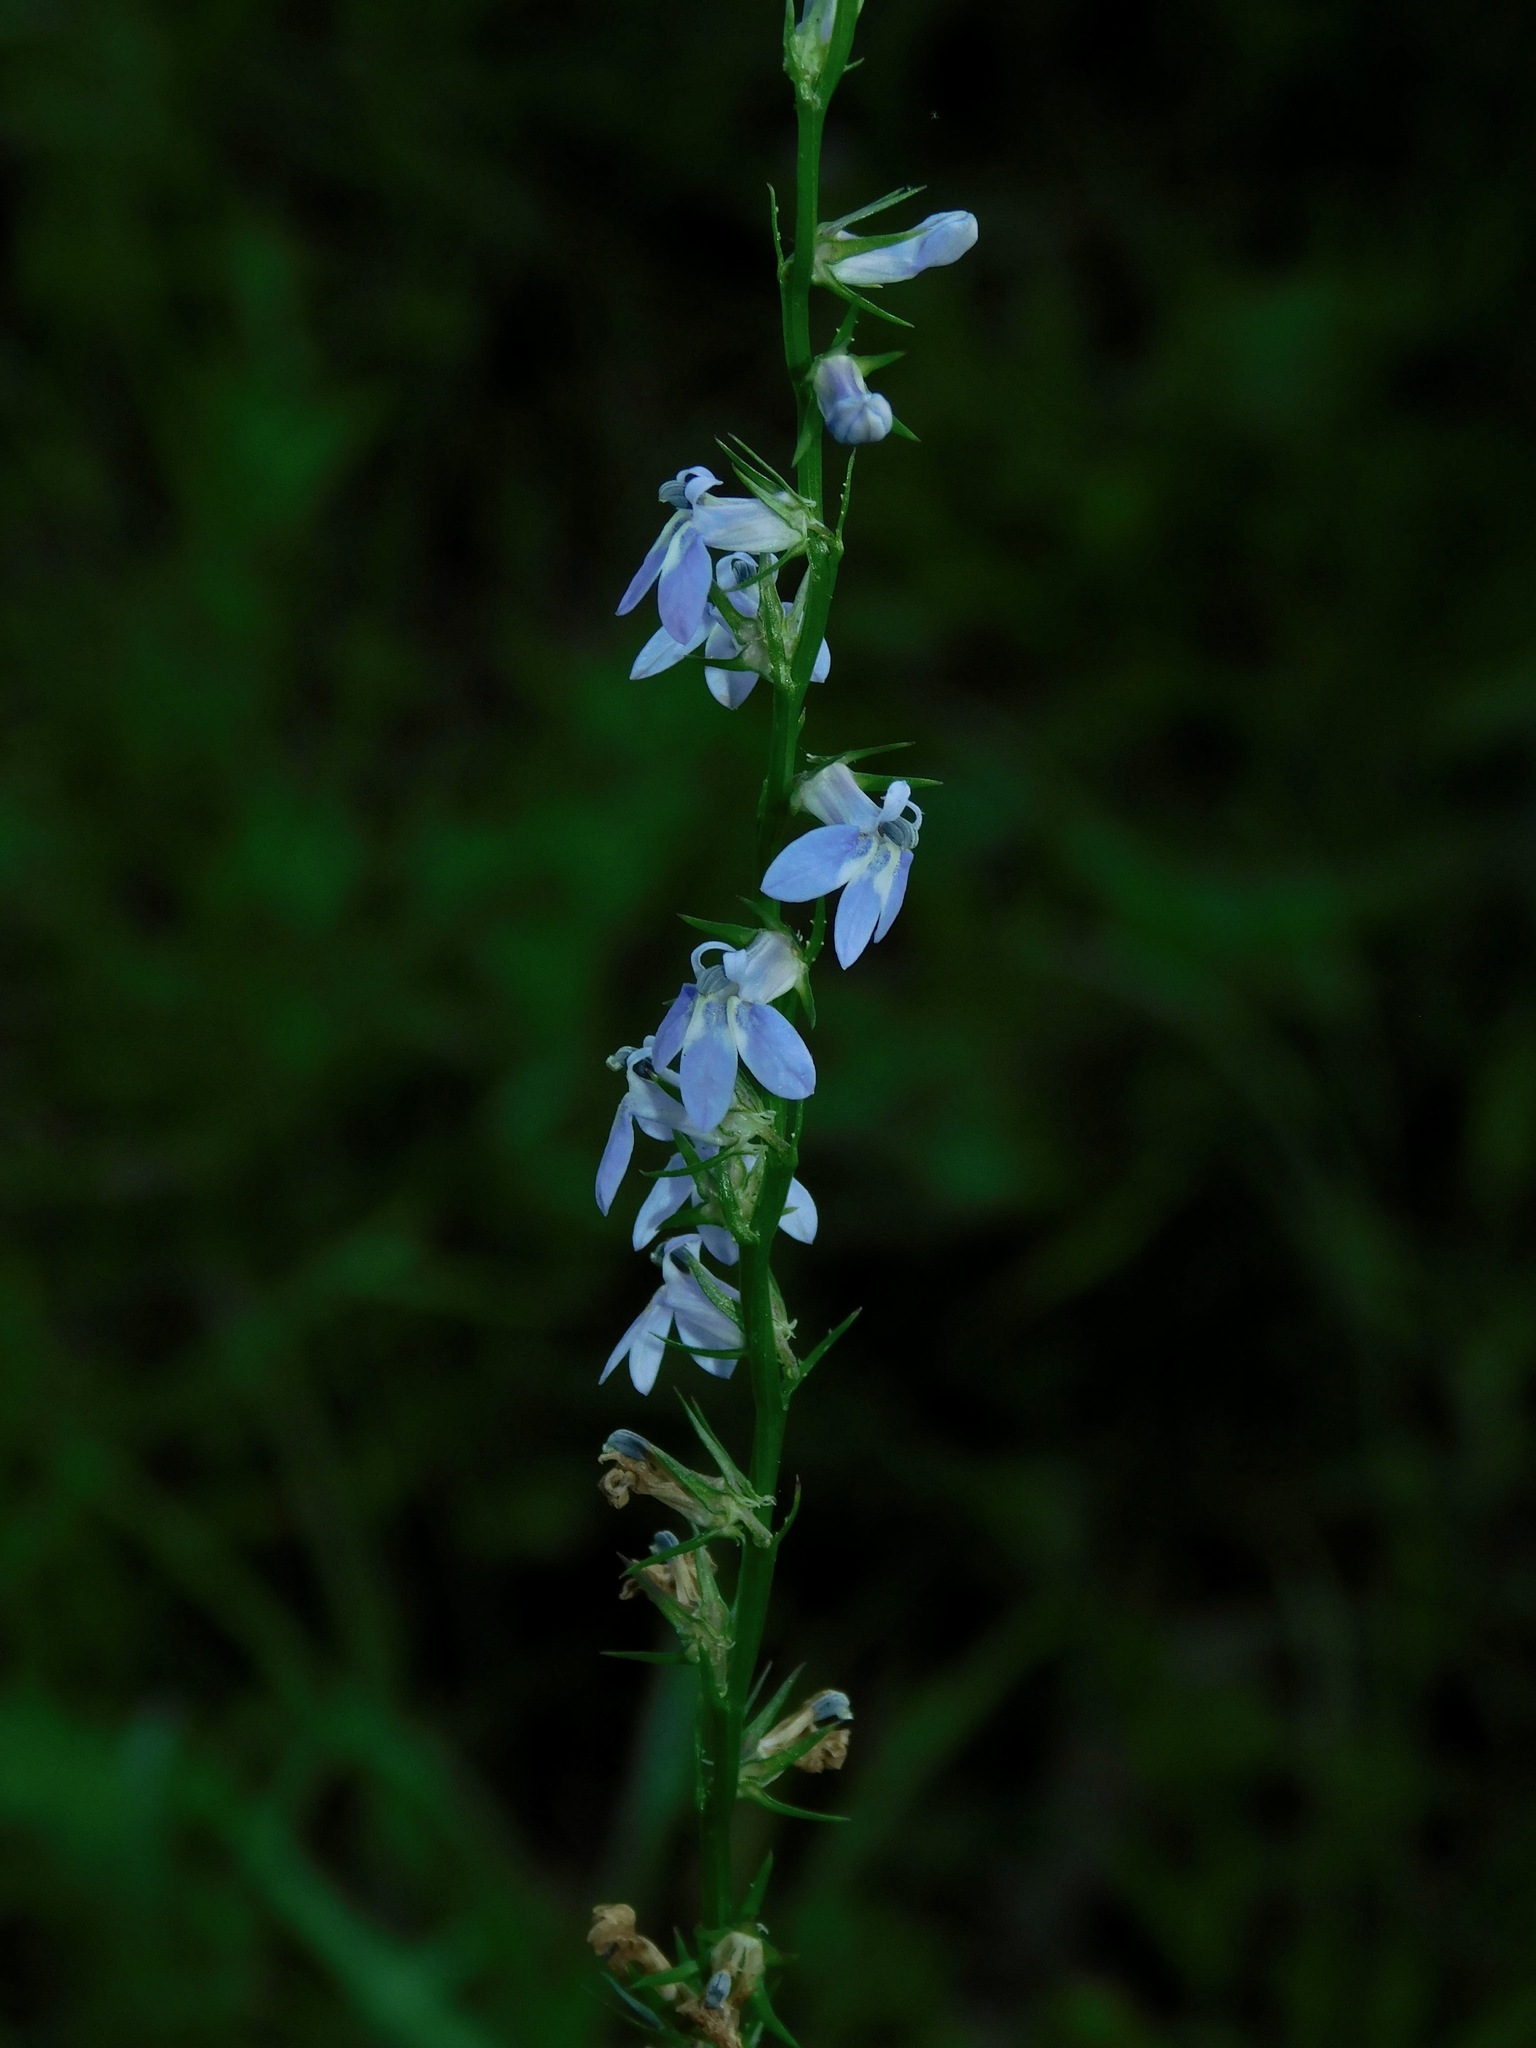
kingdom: Plantae
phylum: Tracheophyta
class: Magnoliopsida
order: Asterales
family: Campanulaceae
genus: Lobelia
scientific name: Lobelia spicata
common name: Pale-spike lobelia
